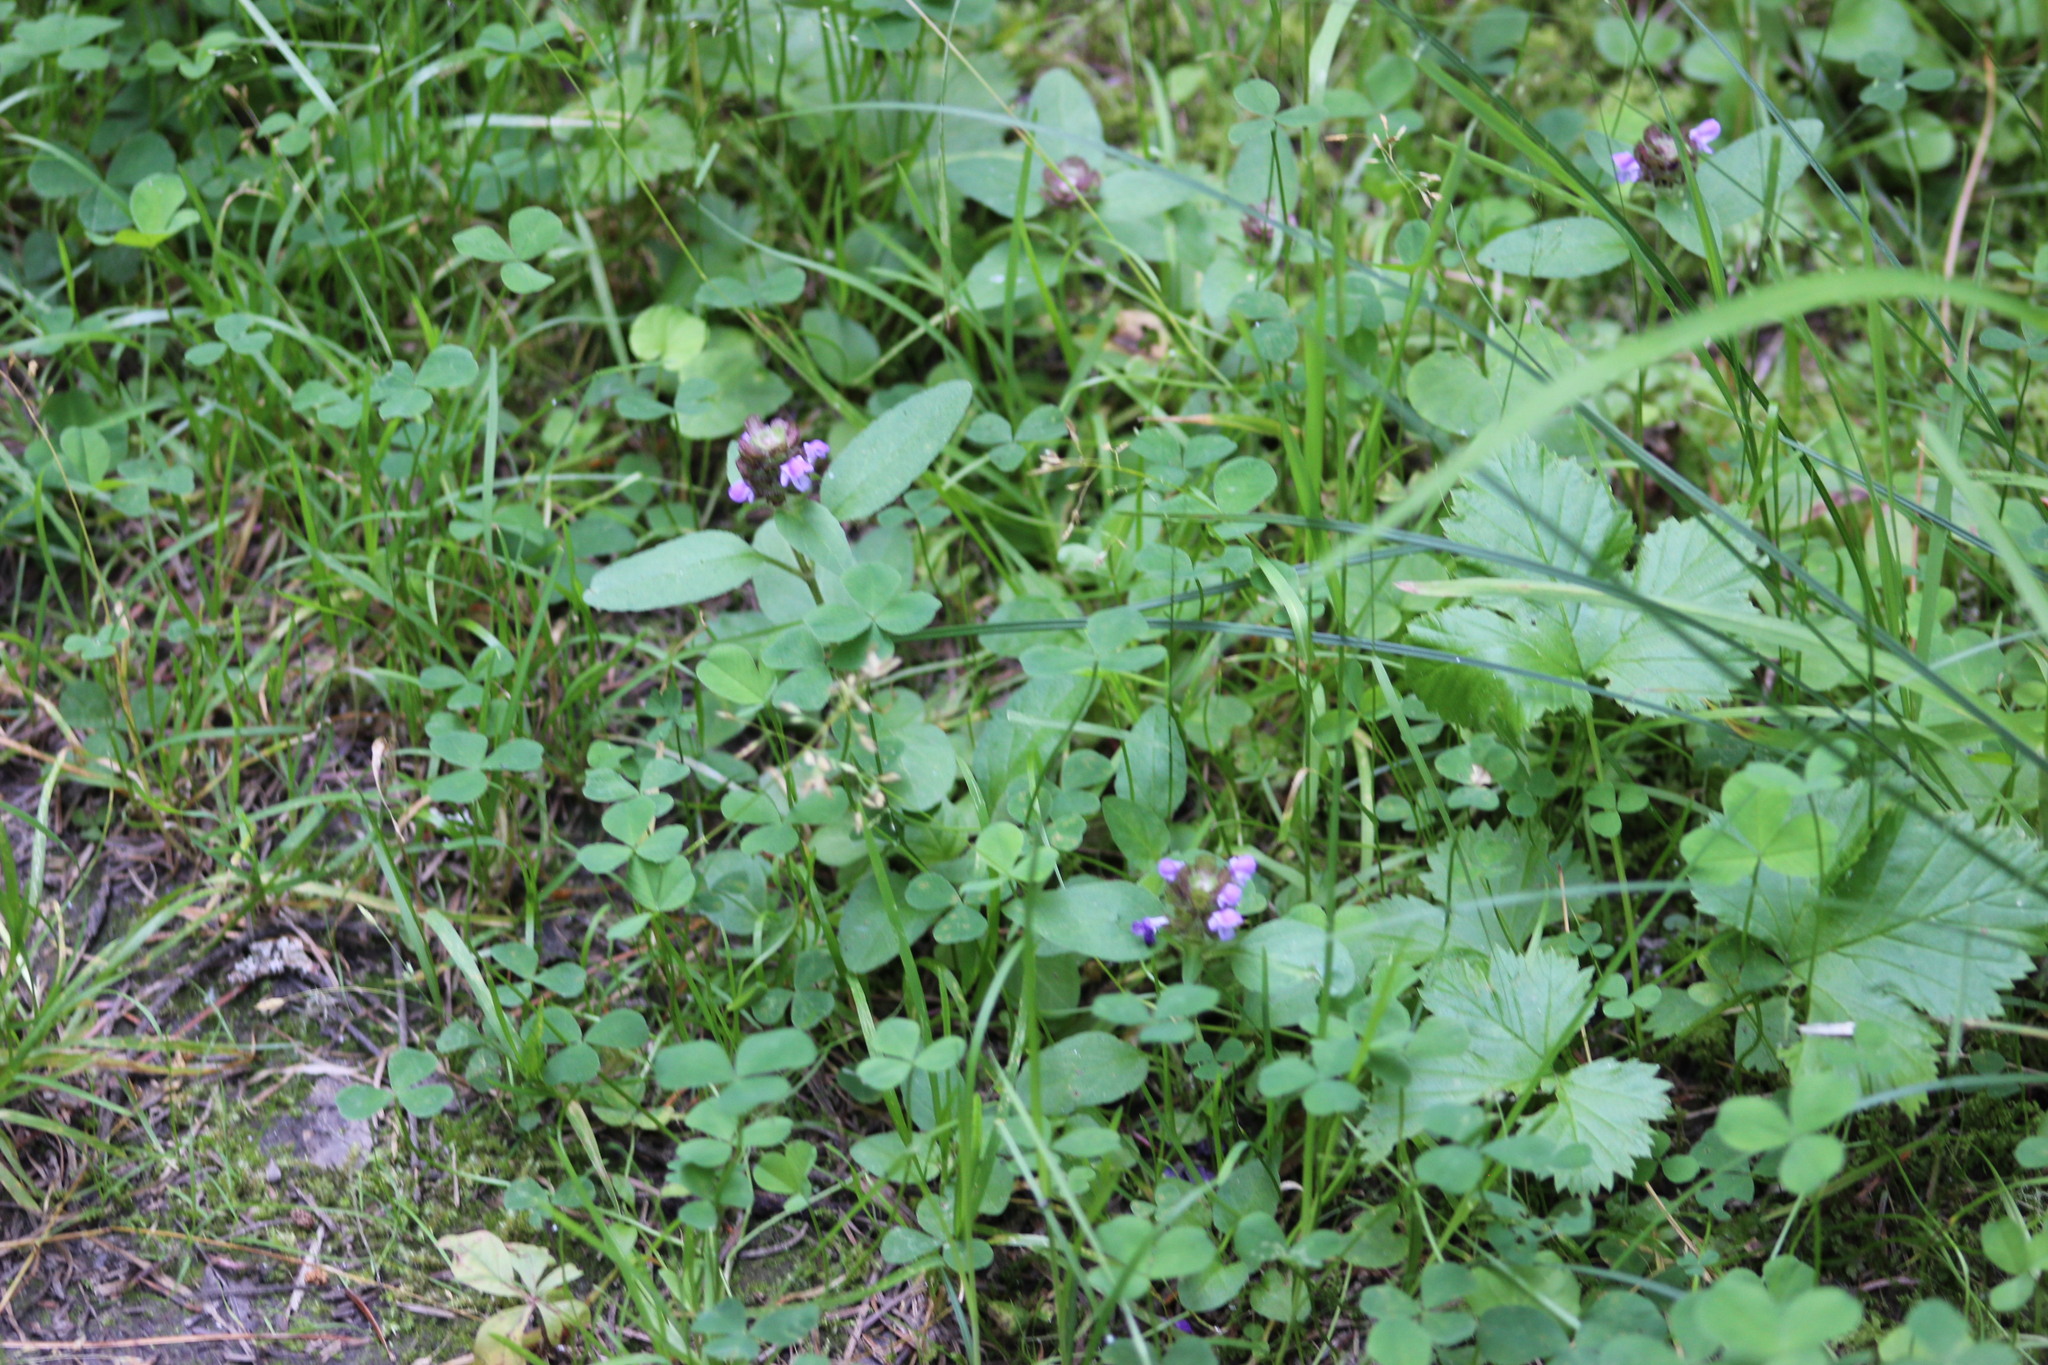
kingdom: Plantae
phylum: Tracheophyta
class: Magnoliopsida
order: Lamiales
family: Lamiaceae
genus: Prunella
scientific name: Prunella vulgaris
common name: Heal-all
